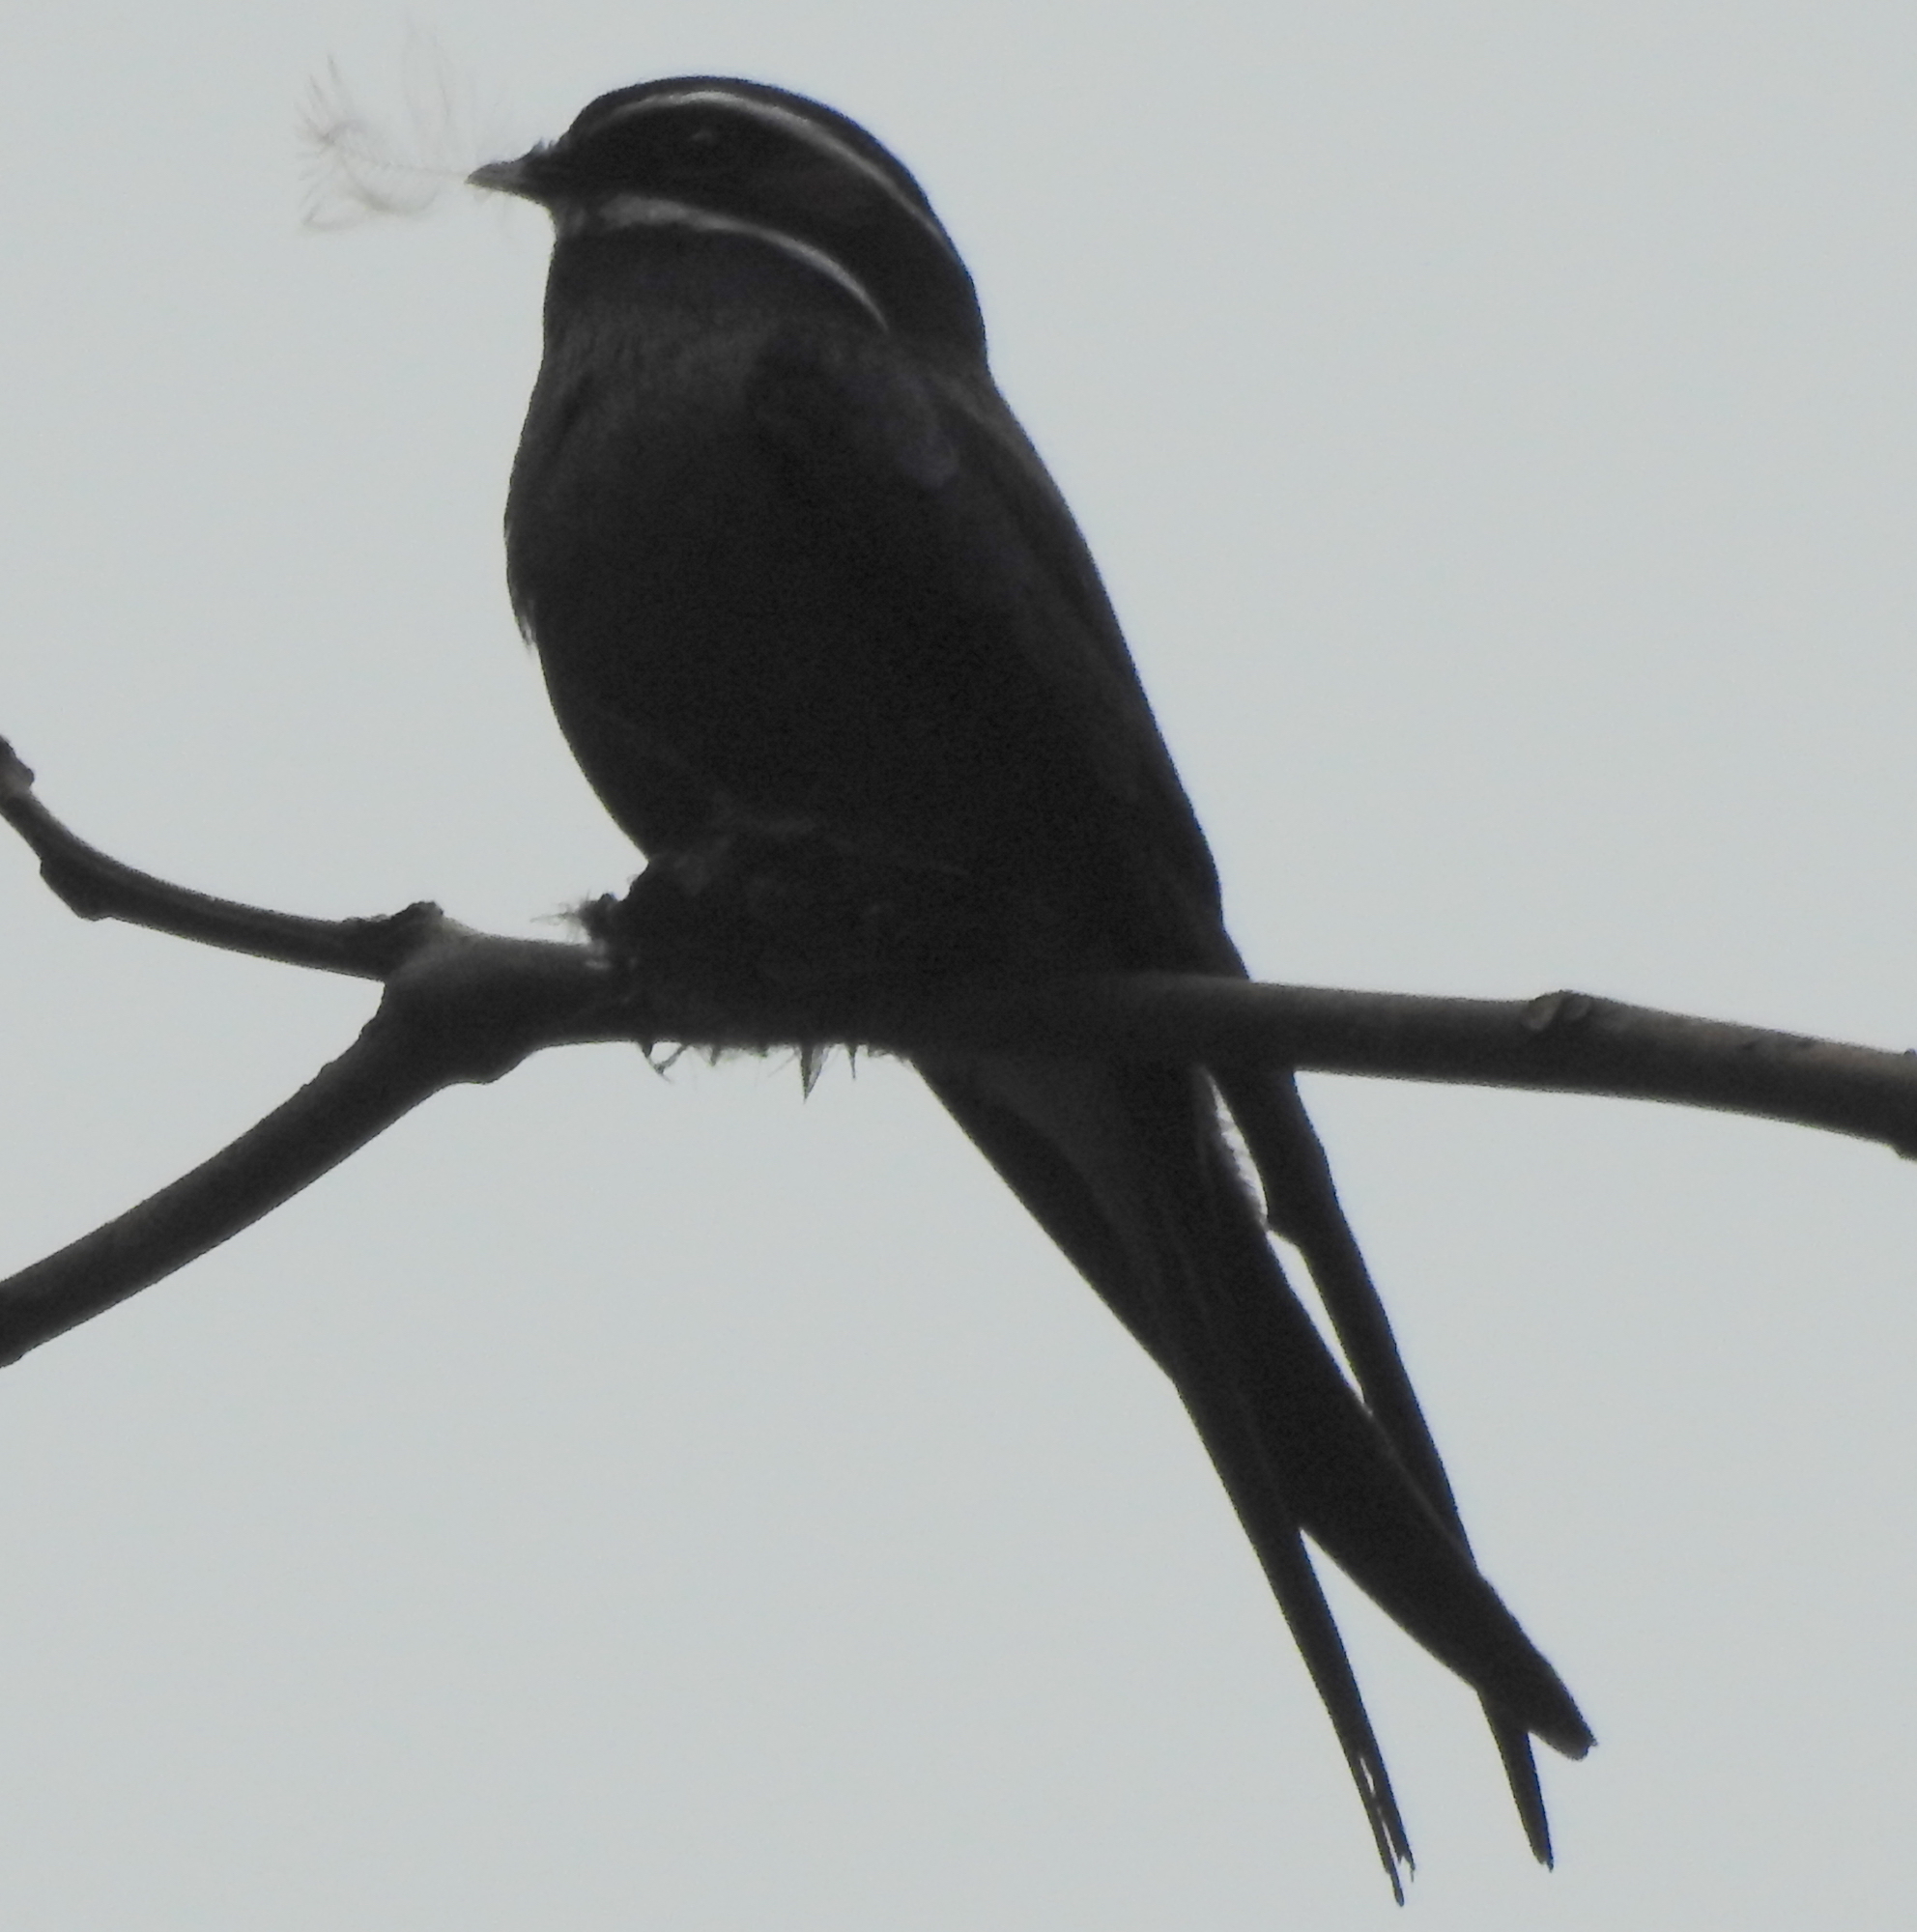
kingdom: Animalia
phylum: Chordata
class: Aves
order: Apodiformes
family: Hemiprocnidae
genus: Hemiprocne
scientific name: Hemiprocne comata
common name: Whiskered treeswift
